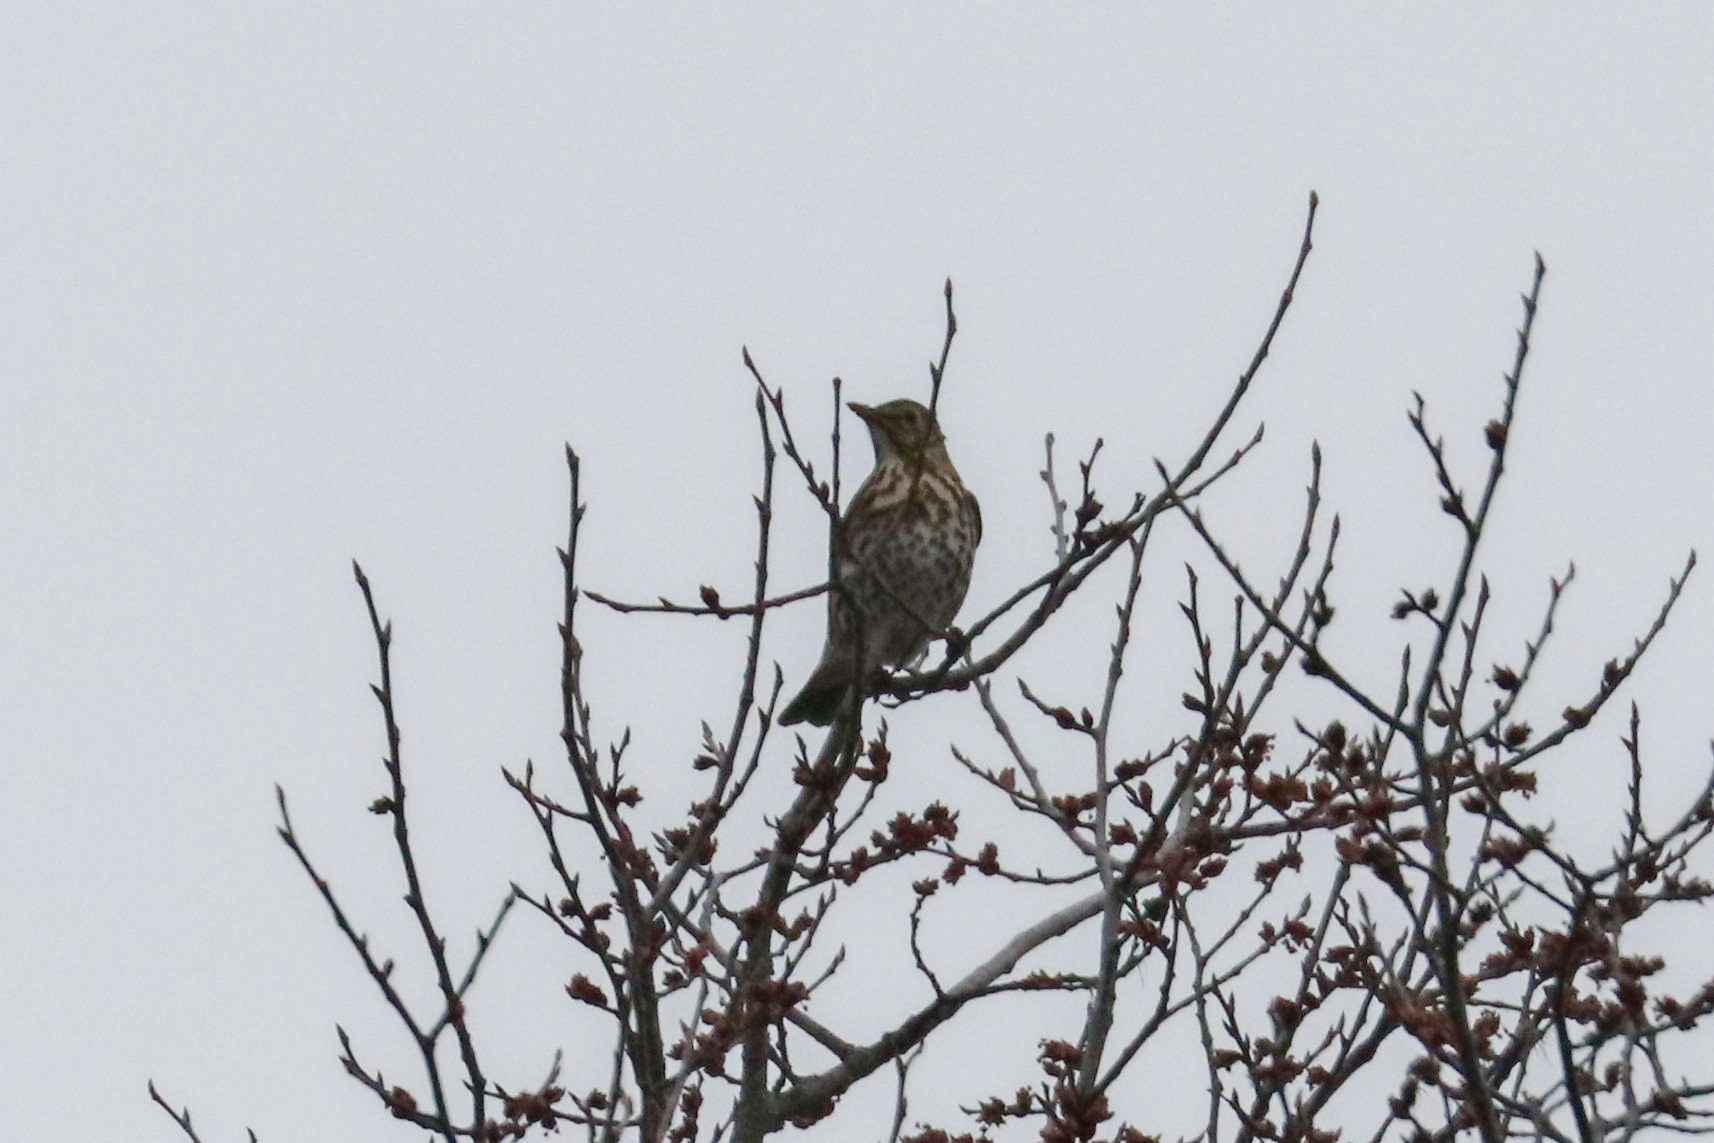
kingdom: Animalia
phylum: Chordata
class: Aves
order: Passeriformes
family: Turdidae
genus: Turdus
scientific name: Turdus philomelos
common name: Song thrush
